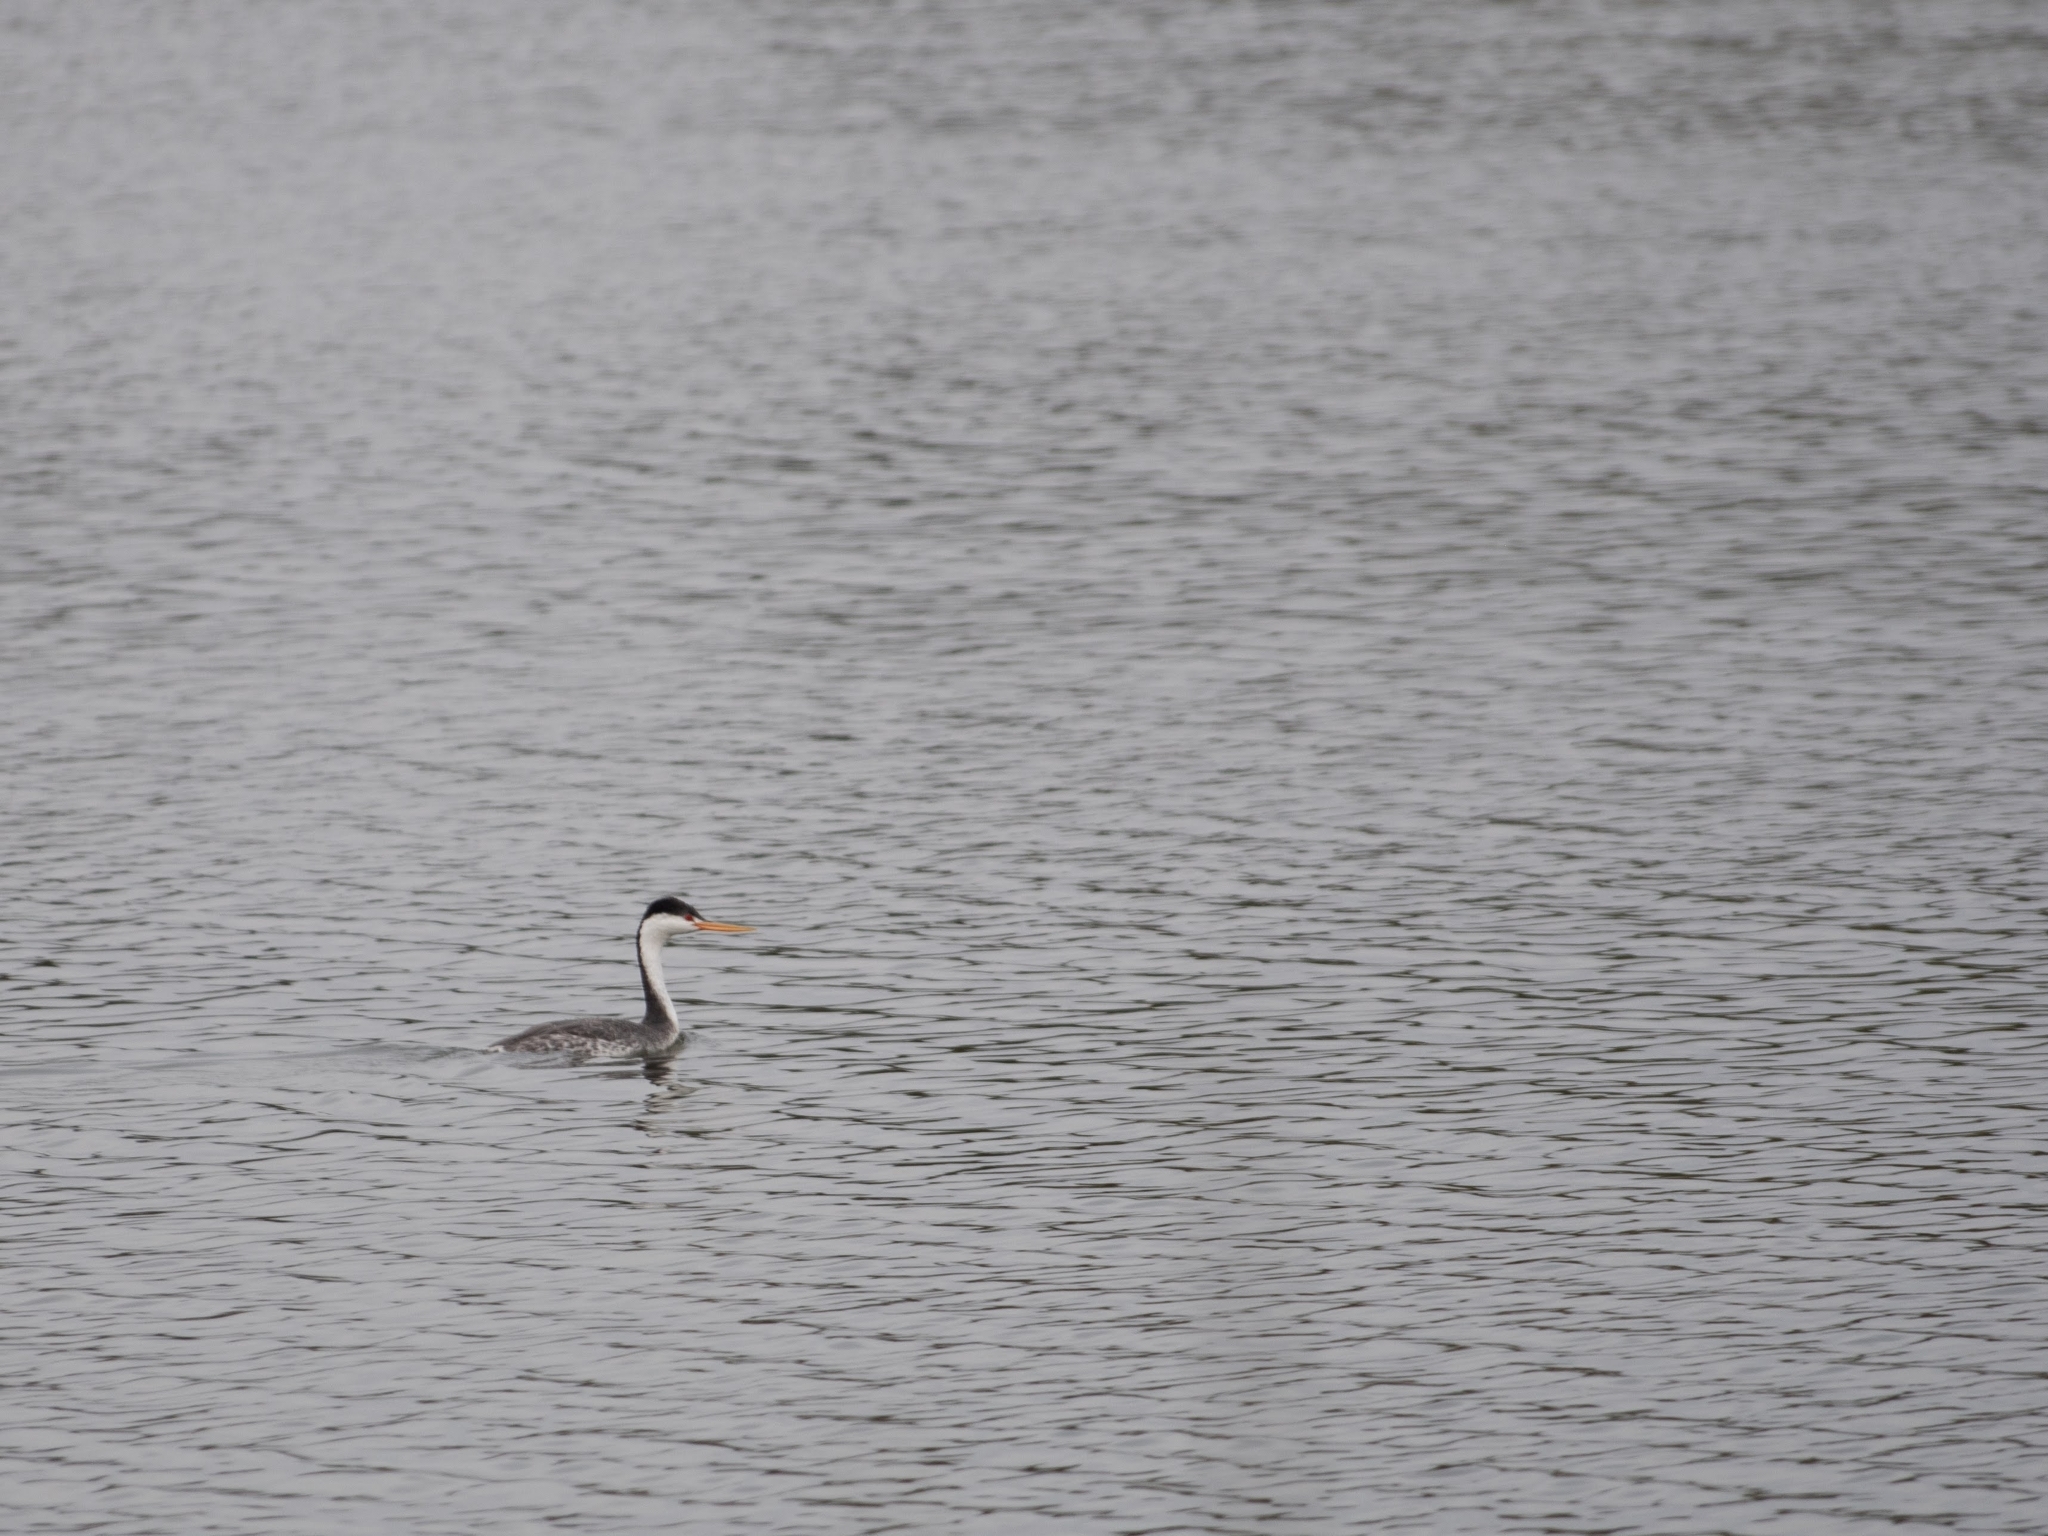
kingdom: Animalia
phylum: Chordata
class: Aves
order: Podicipediformes
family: Podicipedidae
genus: Aechmophorus
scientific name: Aechmophorus clarkii
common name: Clark's grebe
